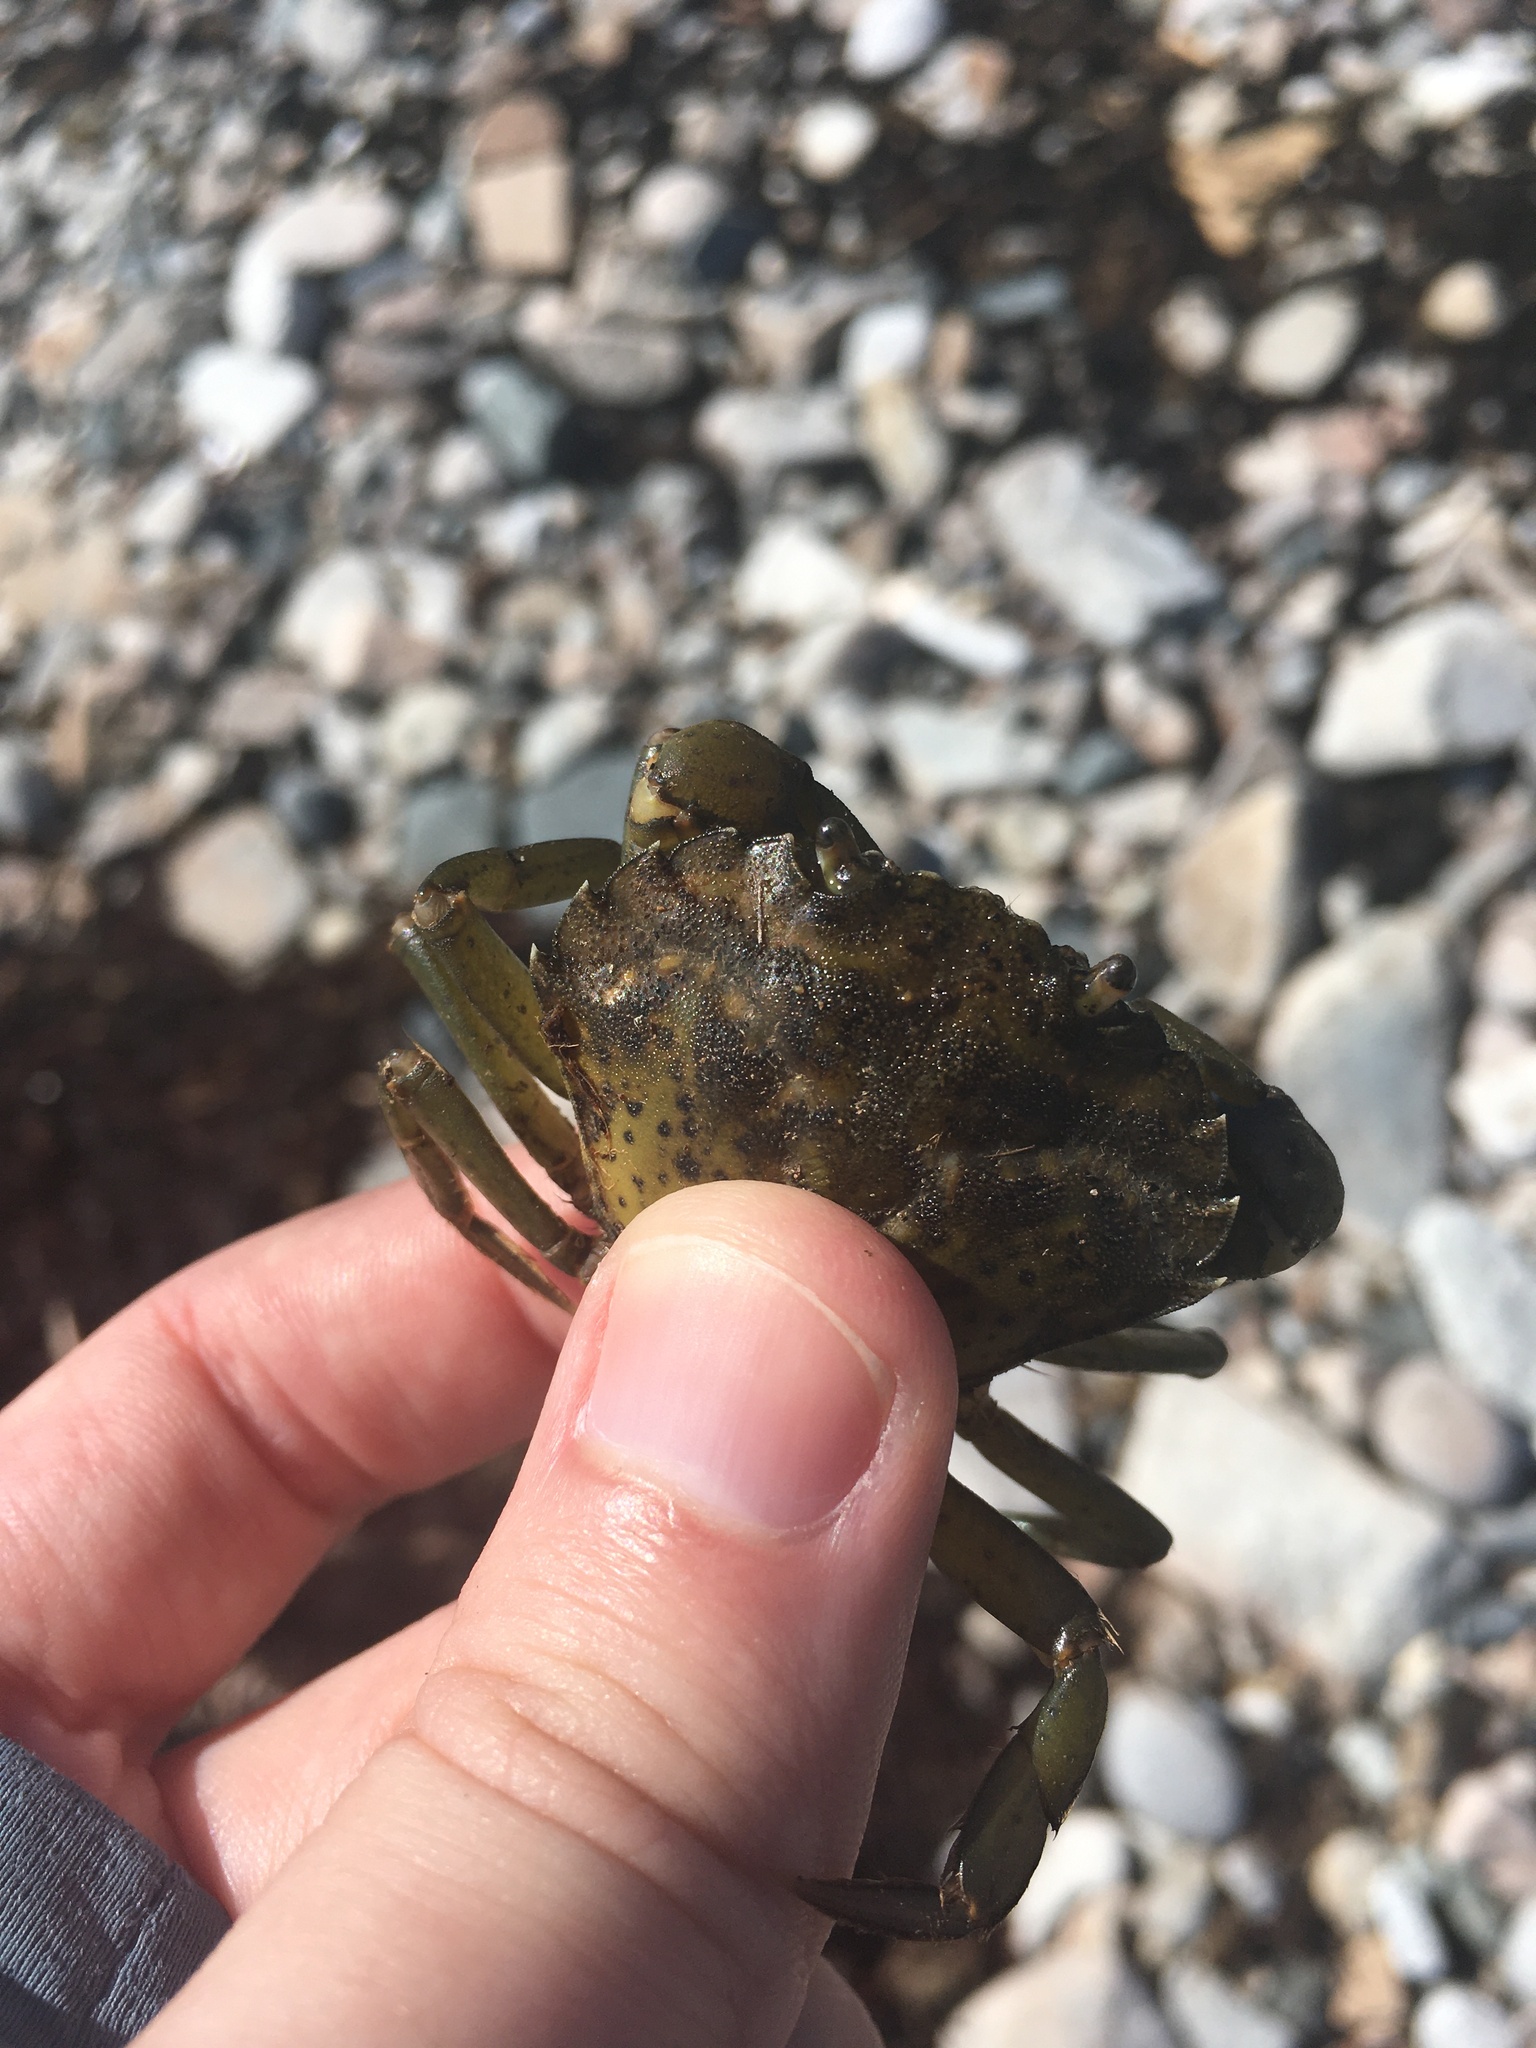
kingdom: Animalia
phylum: Arthropoda
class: Malacostraca
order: Decapoda
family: Carcinidae
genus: Carcinus
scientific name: Carcinus maenas
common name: European green crab
